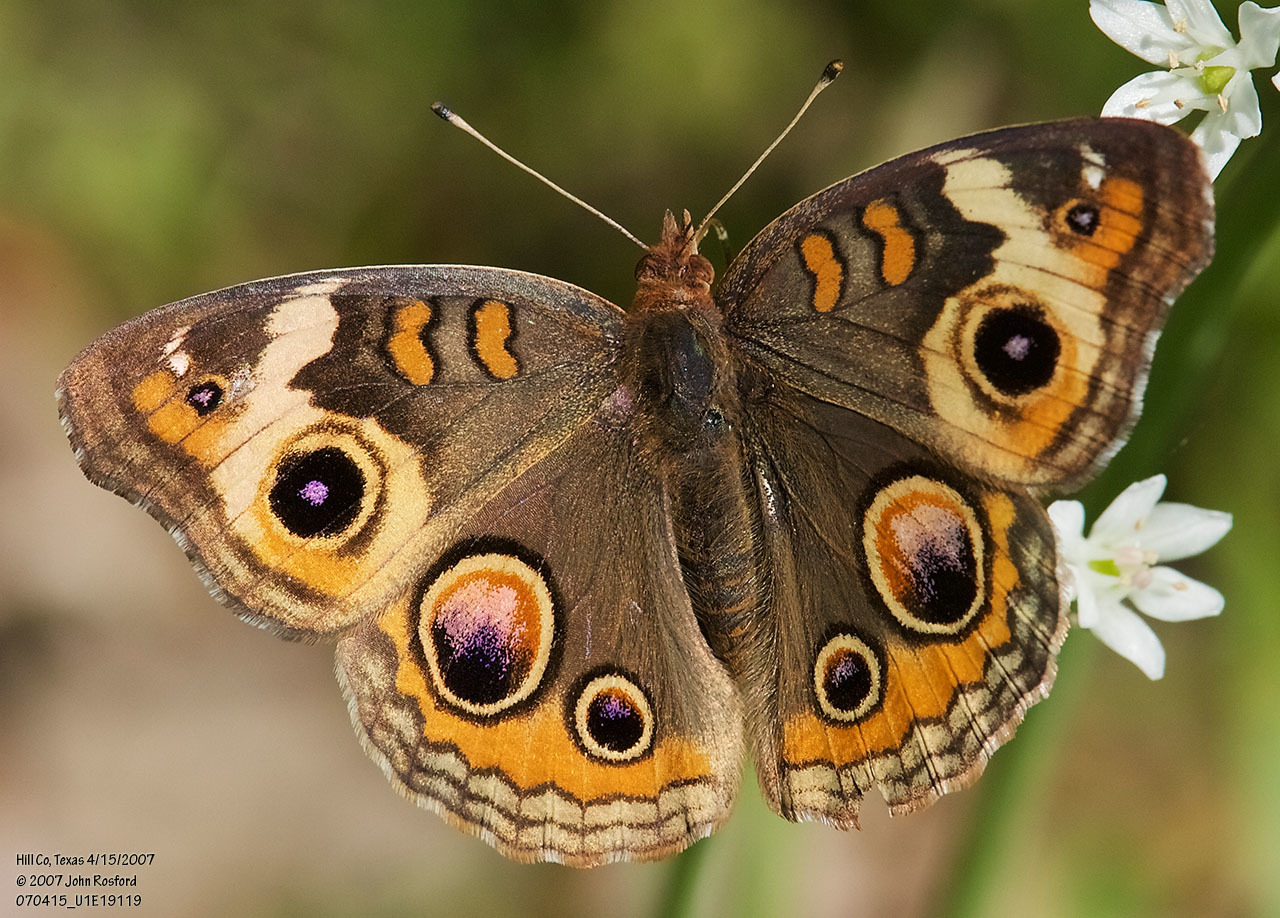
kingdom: Animalia
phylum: Arthropoda
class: Insecta
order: Lepidoptera
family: Nymphalidae
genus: Junonia
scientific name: Junonia coenia
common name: Common buckeye
